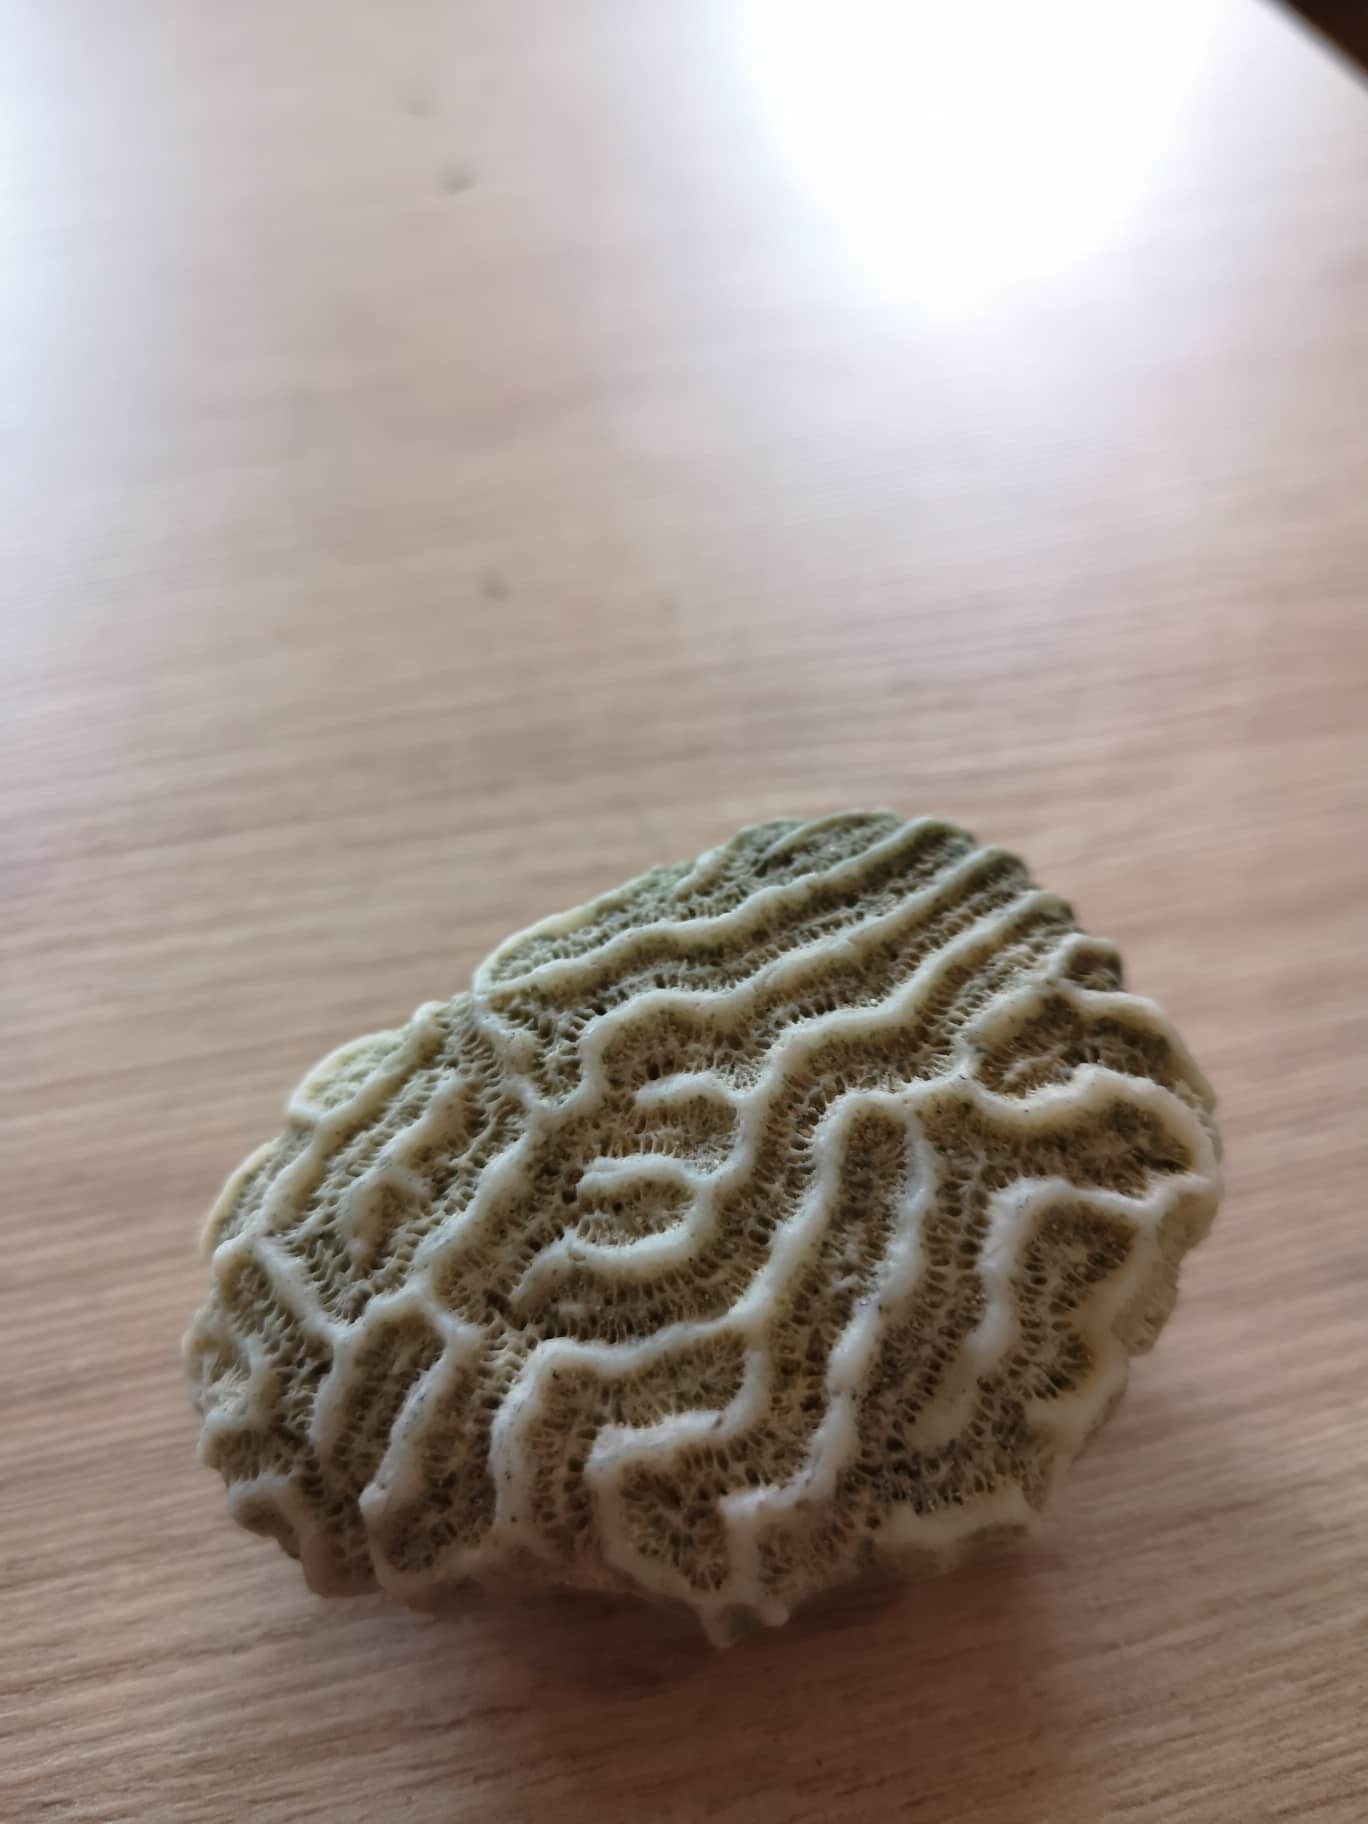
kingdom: Animalia
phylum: Cnidaria
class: Anthozoa
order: Scleractinia
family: Faviidae
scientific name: Faviidae
